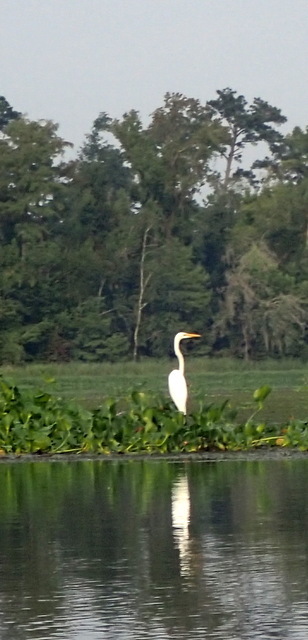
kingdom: Animalia
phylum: Chordata
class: Aves
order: Pelecaniformes
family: Ardeidae
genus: Ardea
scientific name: Ardea alba
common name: Great egret
